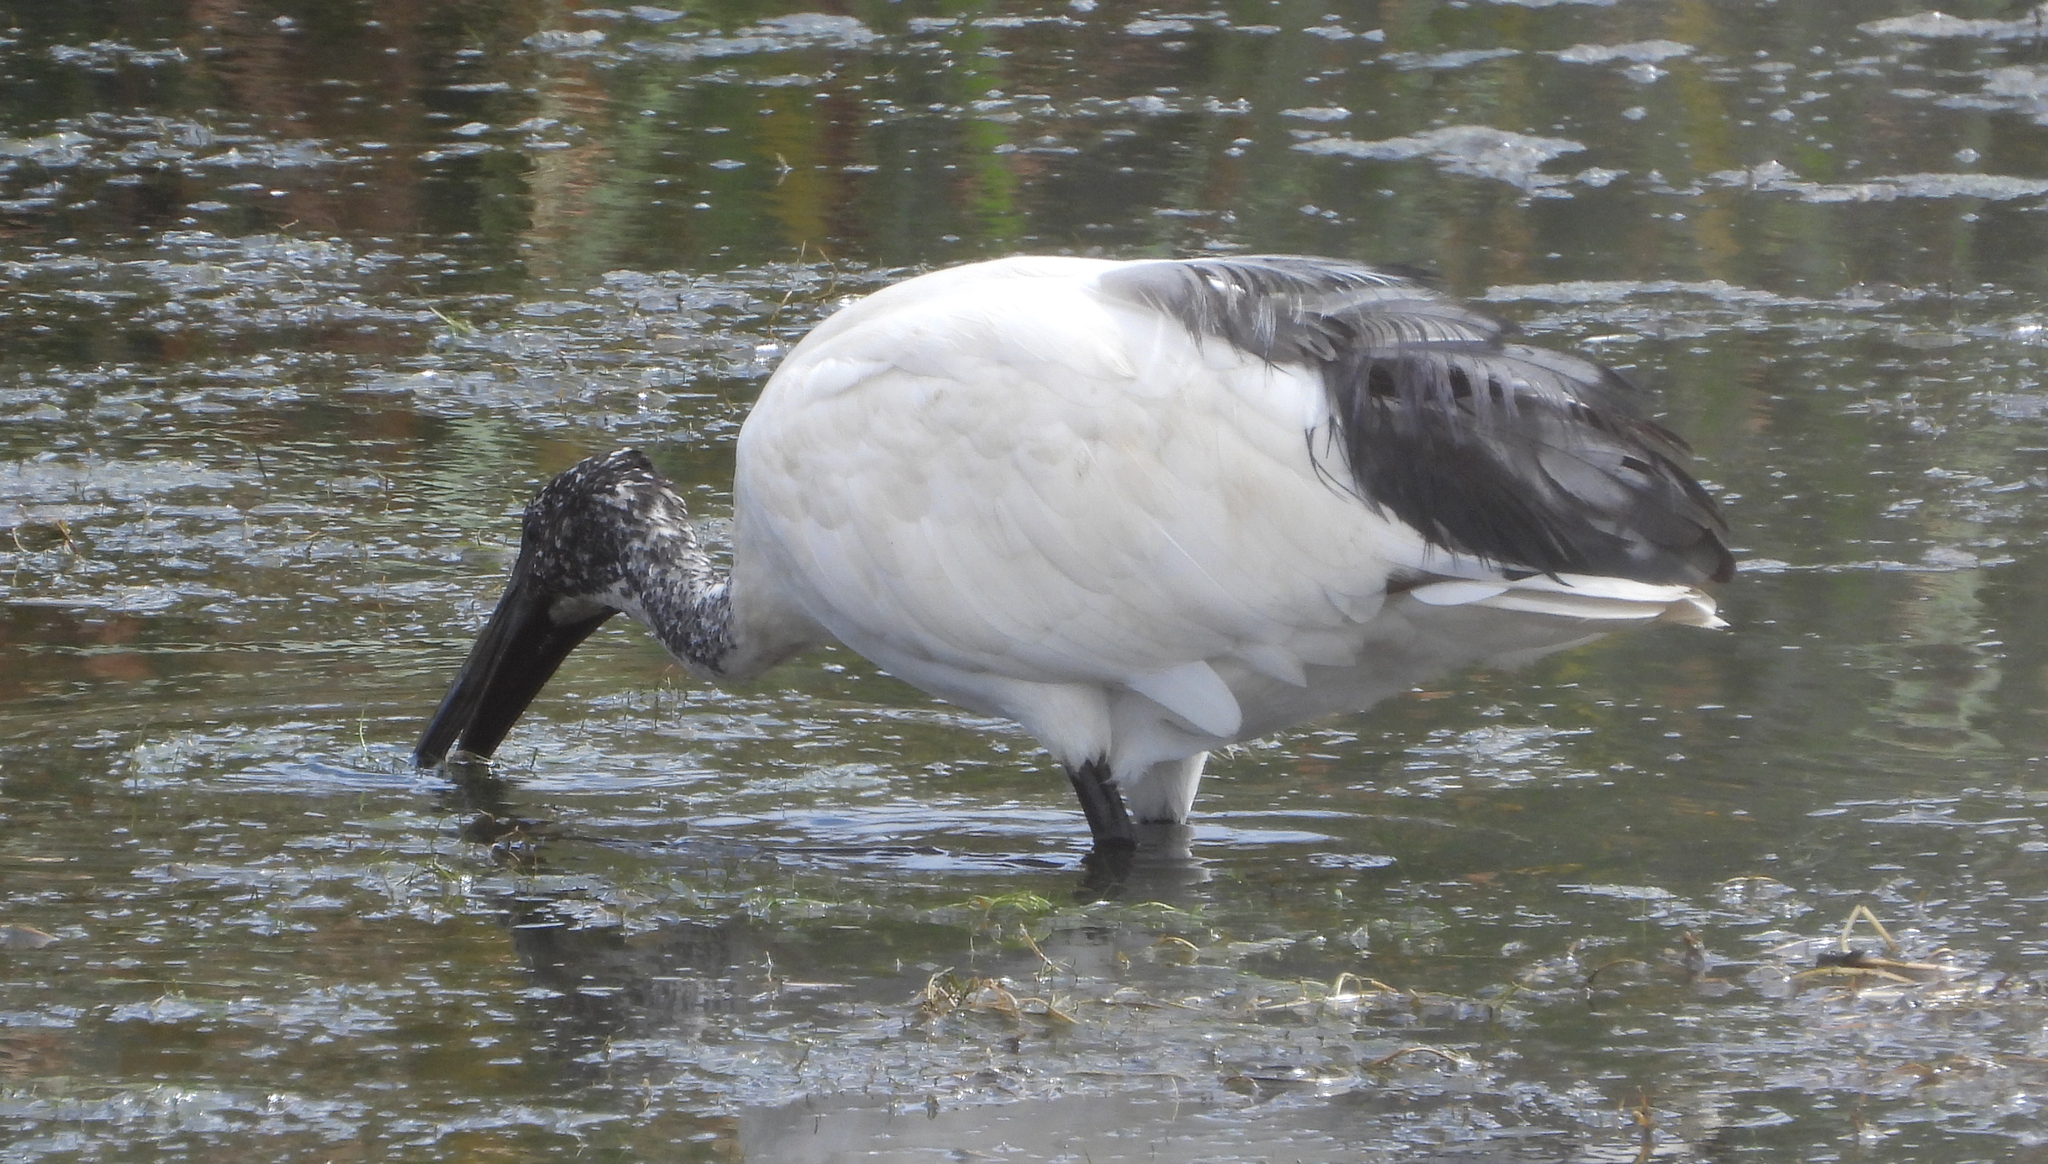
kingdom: Animalia
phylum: Chordata
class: Aves
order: Pelecaniformes
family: Threskiornithidae
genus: Threskiornis
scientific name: Threskiornis aethiopicus
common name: Sacred ibis
